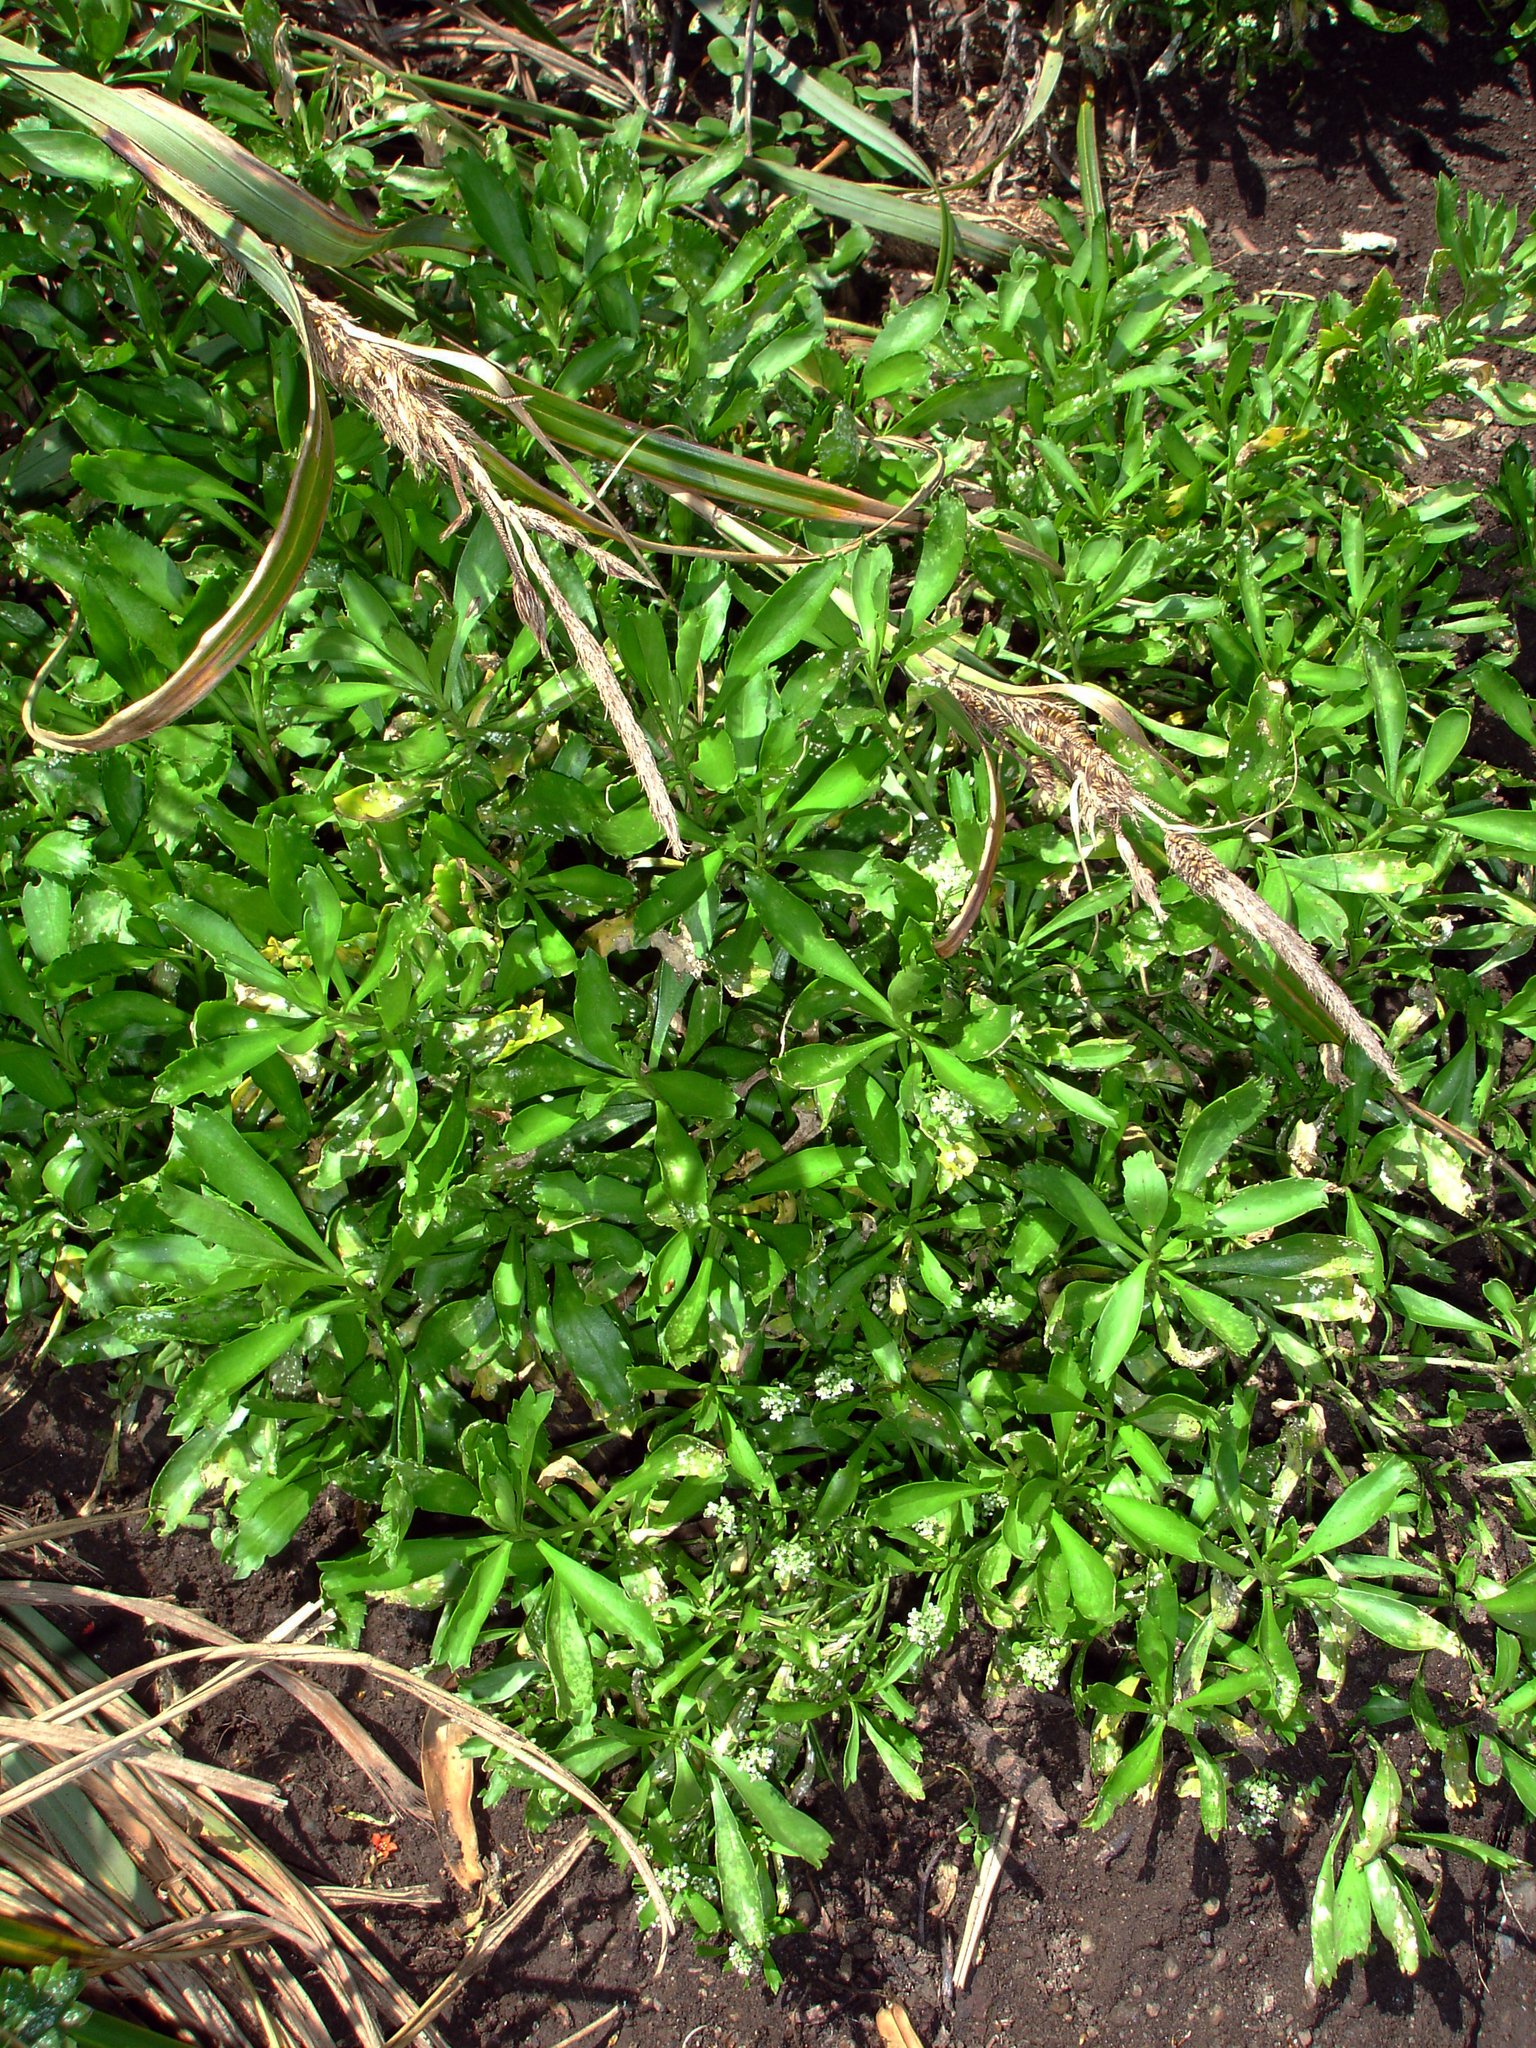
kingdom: Plantae
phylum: Tracheophyta
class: Magnoliopsida
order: Brassicales
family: Brassicaceae
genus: Lepidium
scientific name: Lepidium oblitum
